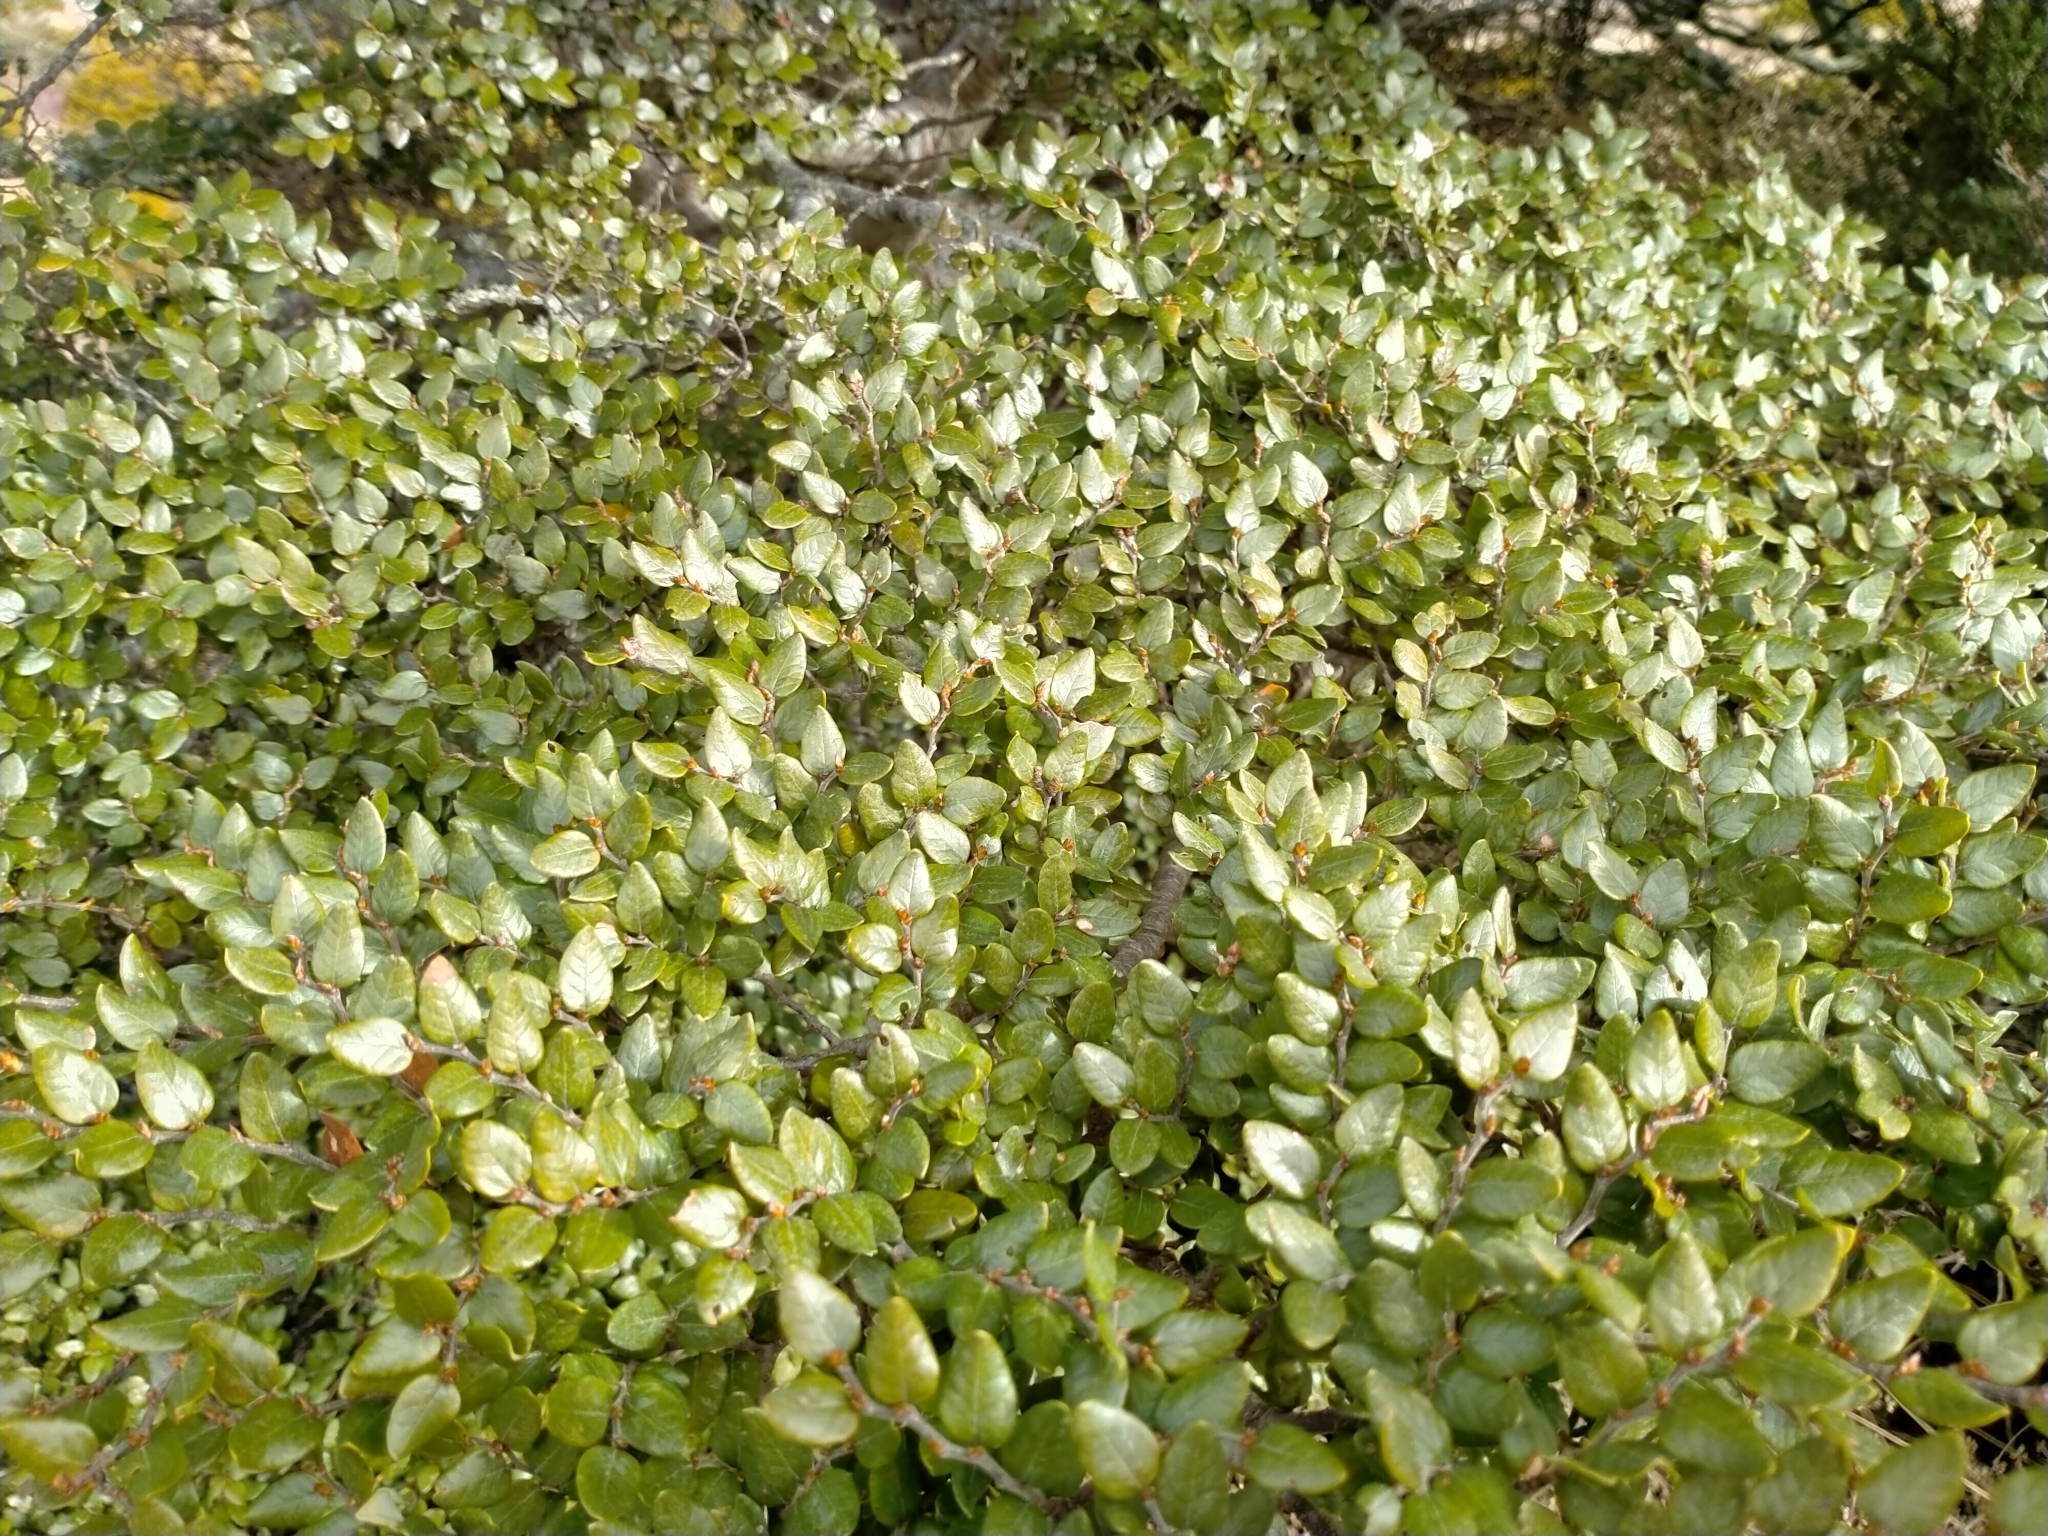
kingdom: Plantae
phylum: Tracheophyta
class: Magnoliopsida
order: Fagales
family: Nothofagaceae
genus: Nothofagus
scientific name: Nothofagus cliffortioides
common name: Mountain beech
